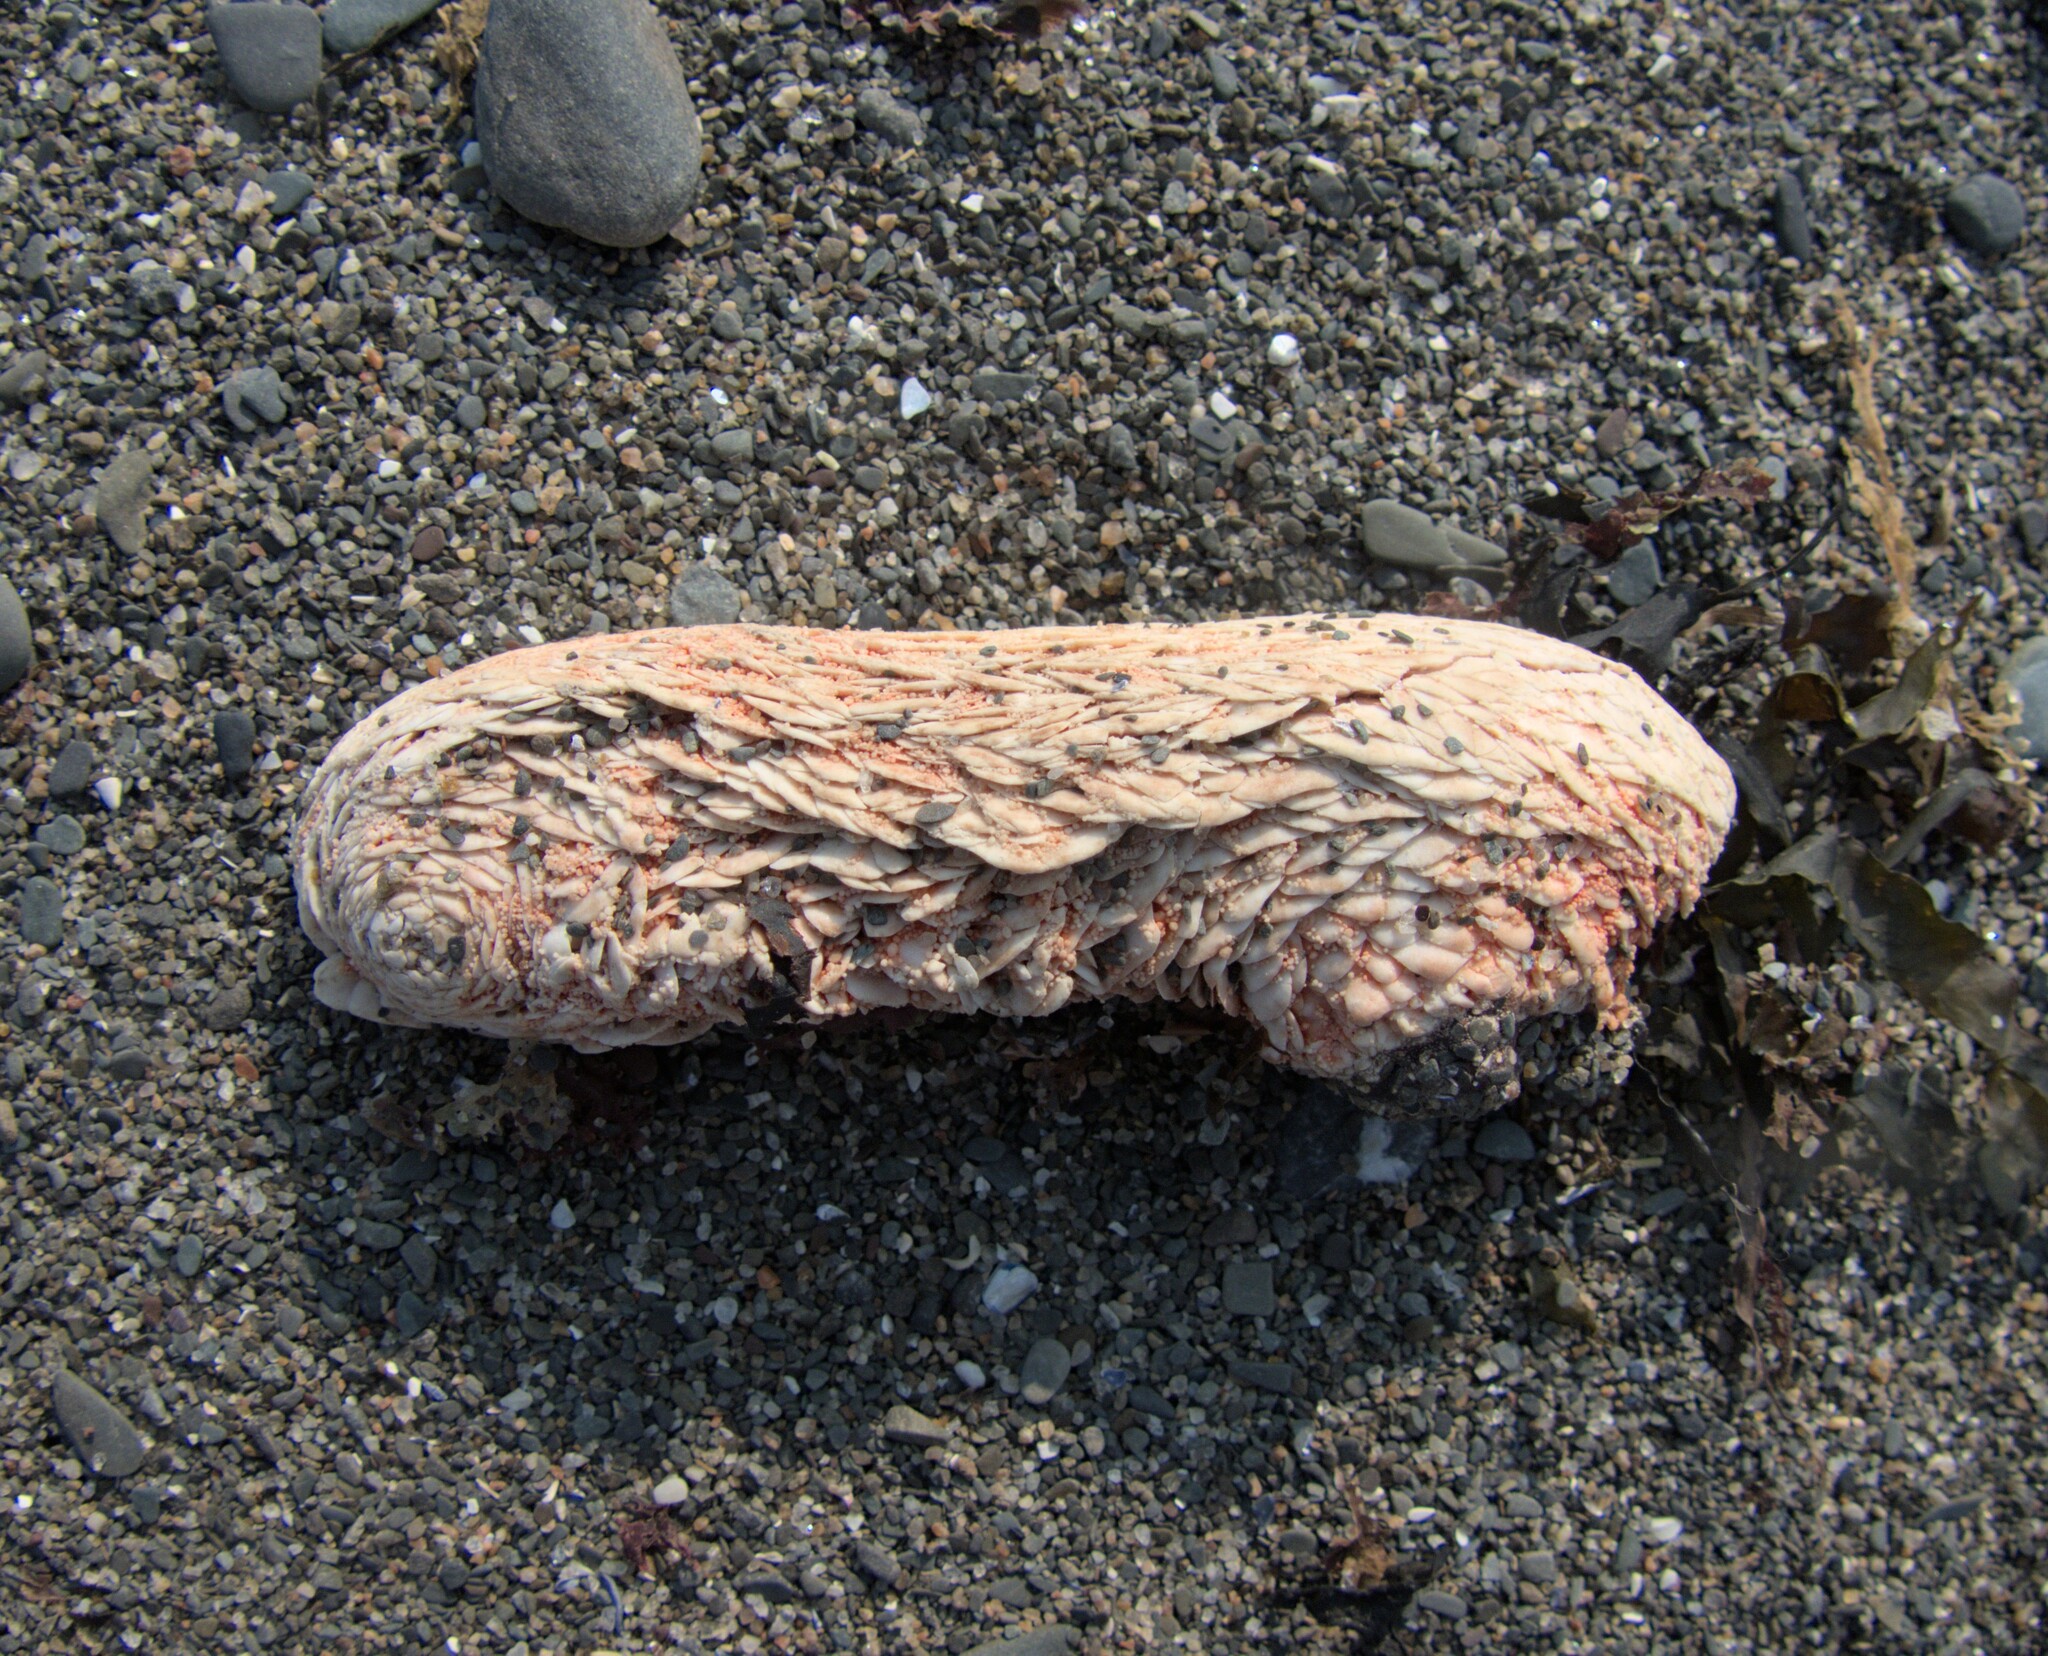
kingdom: Animalia
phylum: Echinodermata
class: Holothuroidea
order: Dendrochirotida
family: Psolidae
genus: Psolus
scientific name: Psolus fabricii
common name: Scarlet psolus
